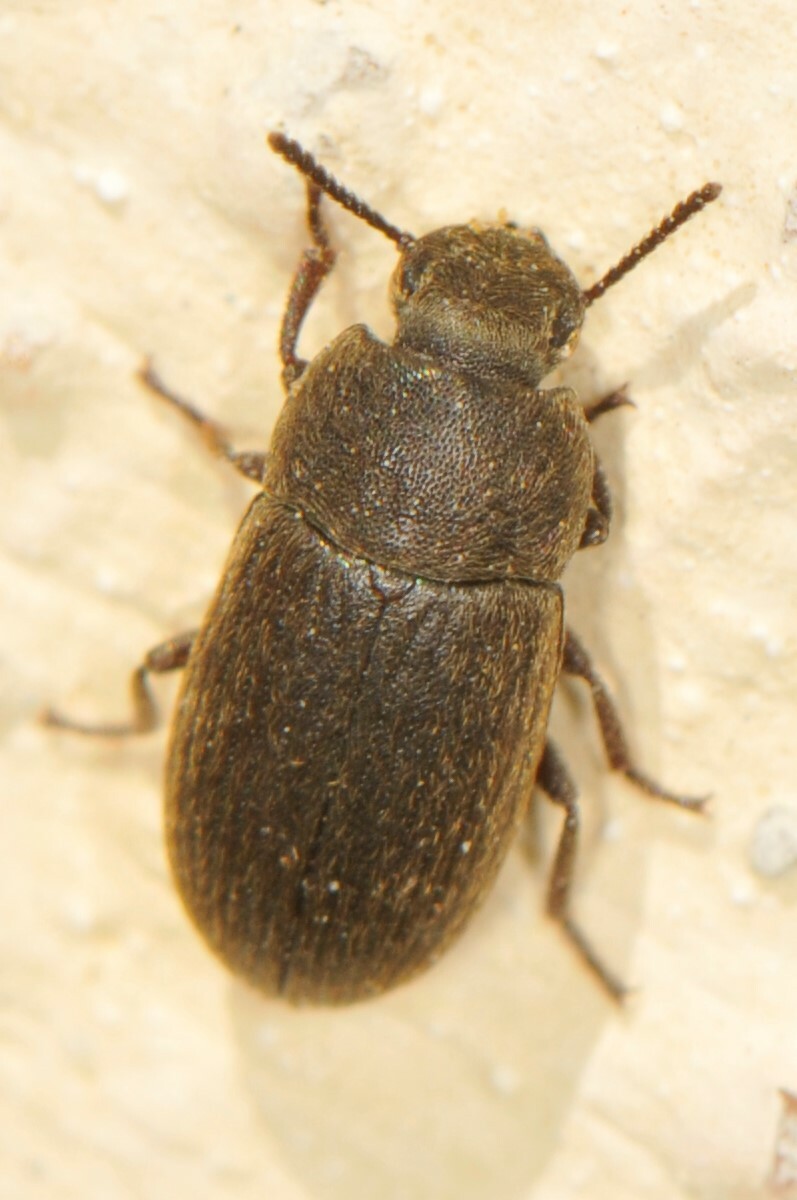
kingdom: Animalia
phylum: Arthropoda
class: Insecta
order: Coleoptera
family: Tenebrionidae
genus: Blapstinus
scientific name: Blapstinus
